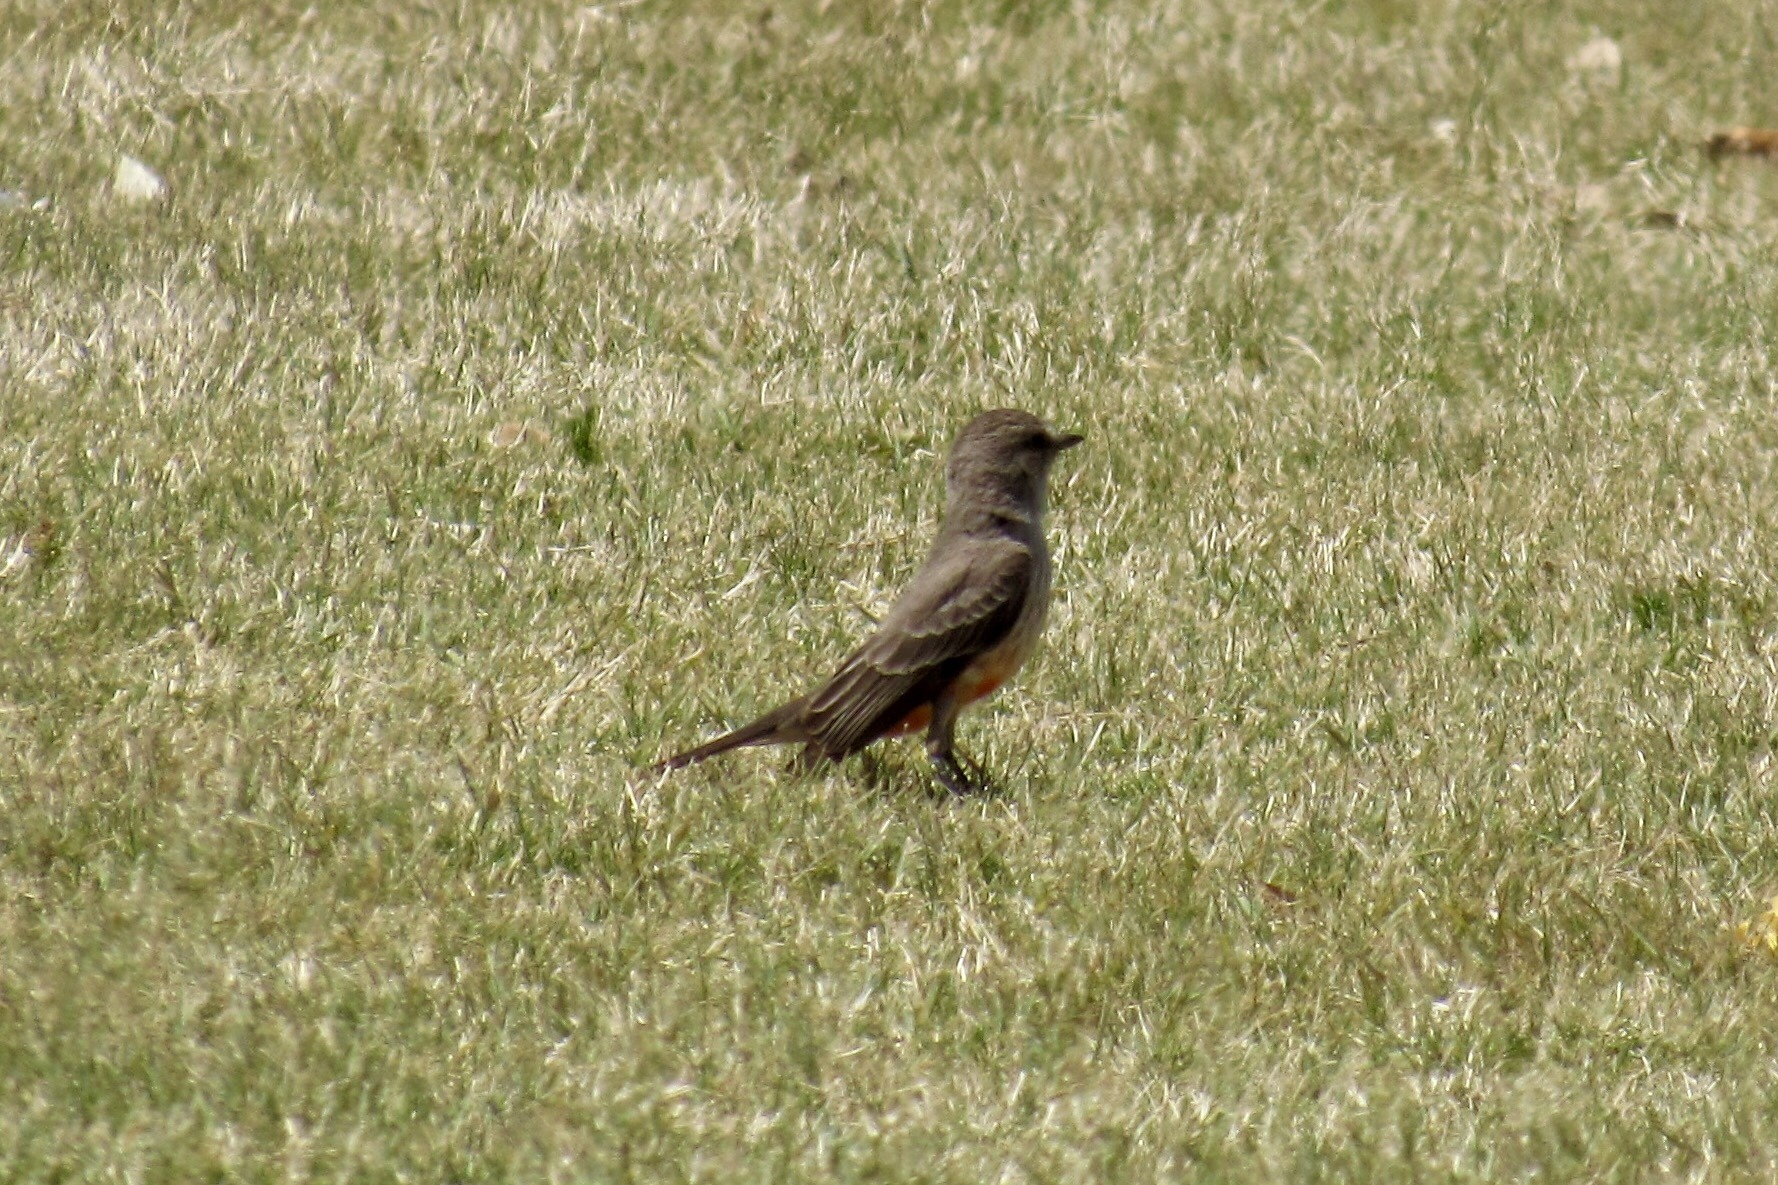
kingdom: Animalia
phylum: Chordata
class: Aves
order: Passeriformes
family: Tyrannidae
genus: Pyrocephalus
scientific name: Pyrocephalus rubinus
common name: Vermilion flycatcher
